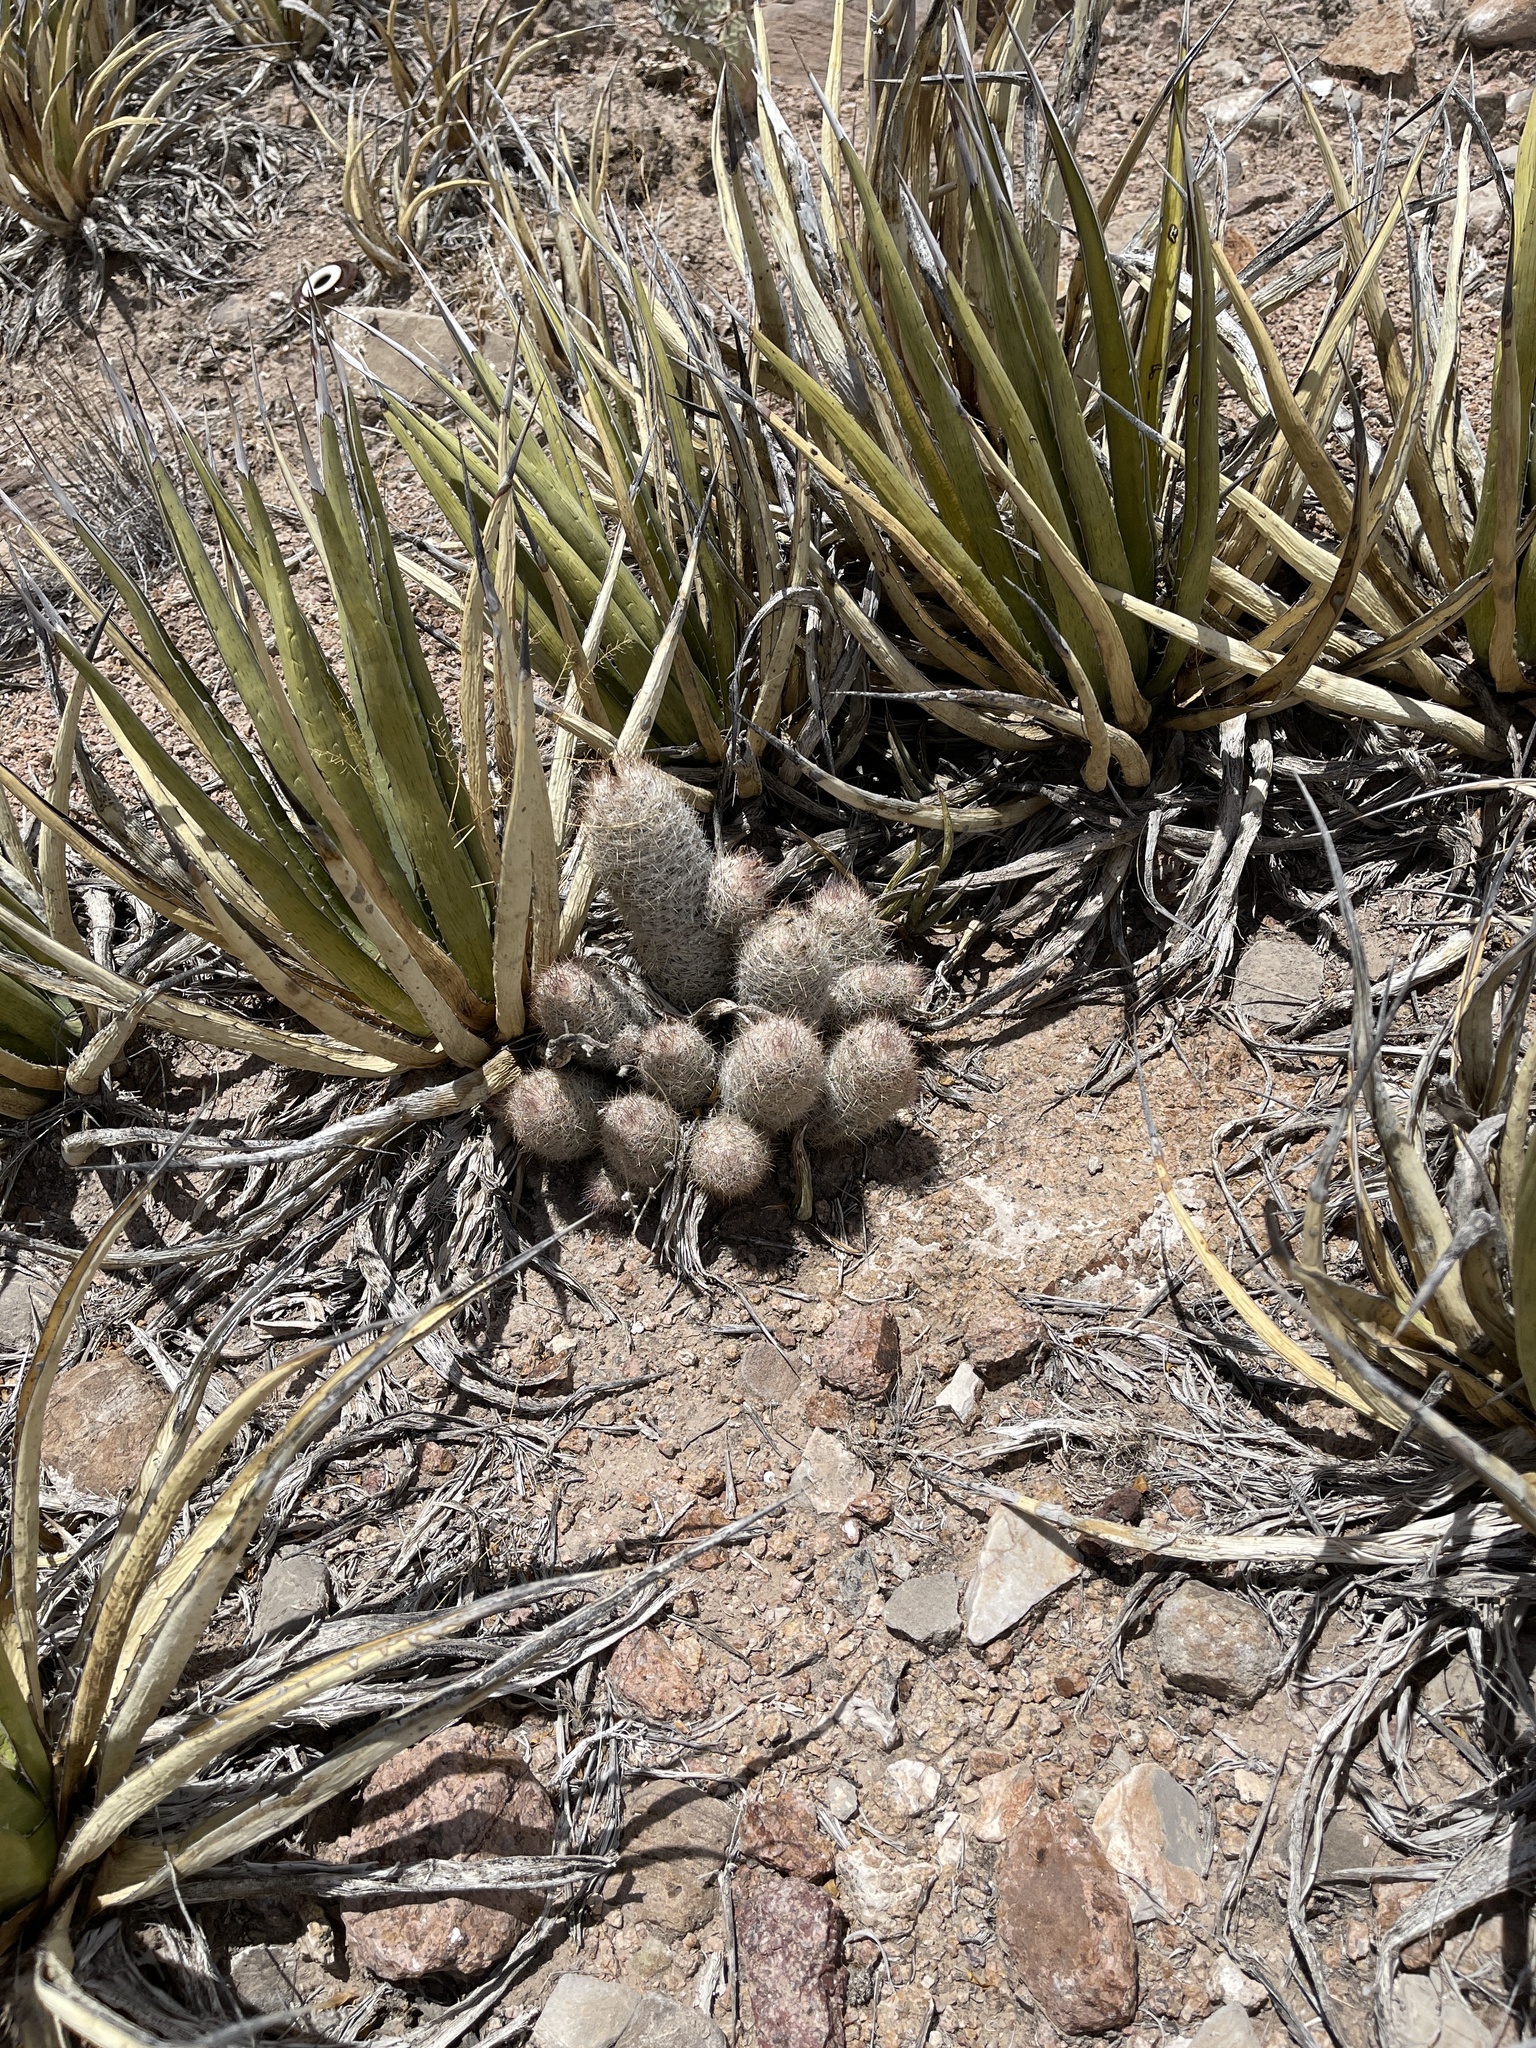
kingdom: Plantae
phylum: Tracheophyta
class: Magnoliopsida
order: Caryophyllales
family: Cactaceae
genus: Pelecyphora
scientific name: Pelecyphora tuberculosa
